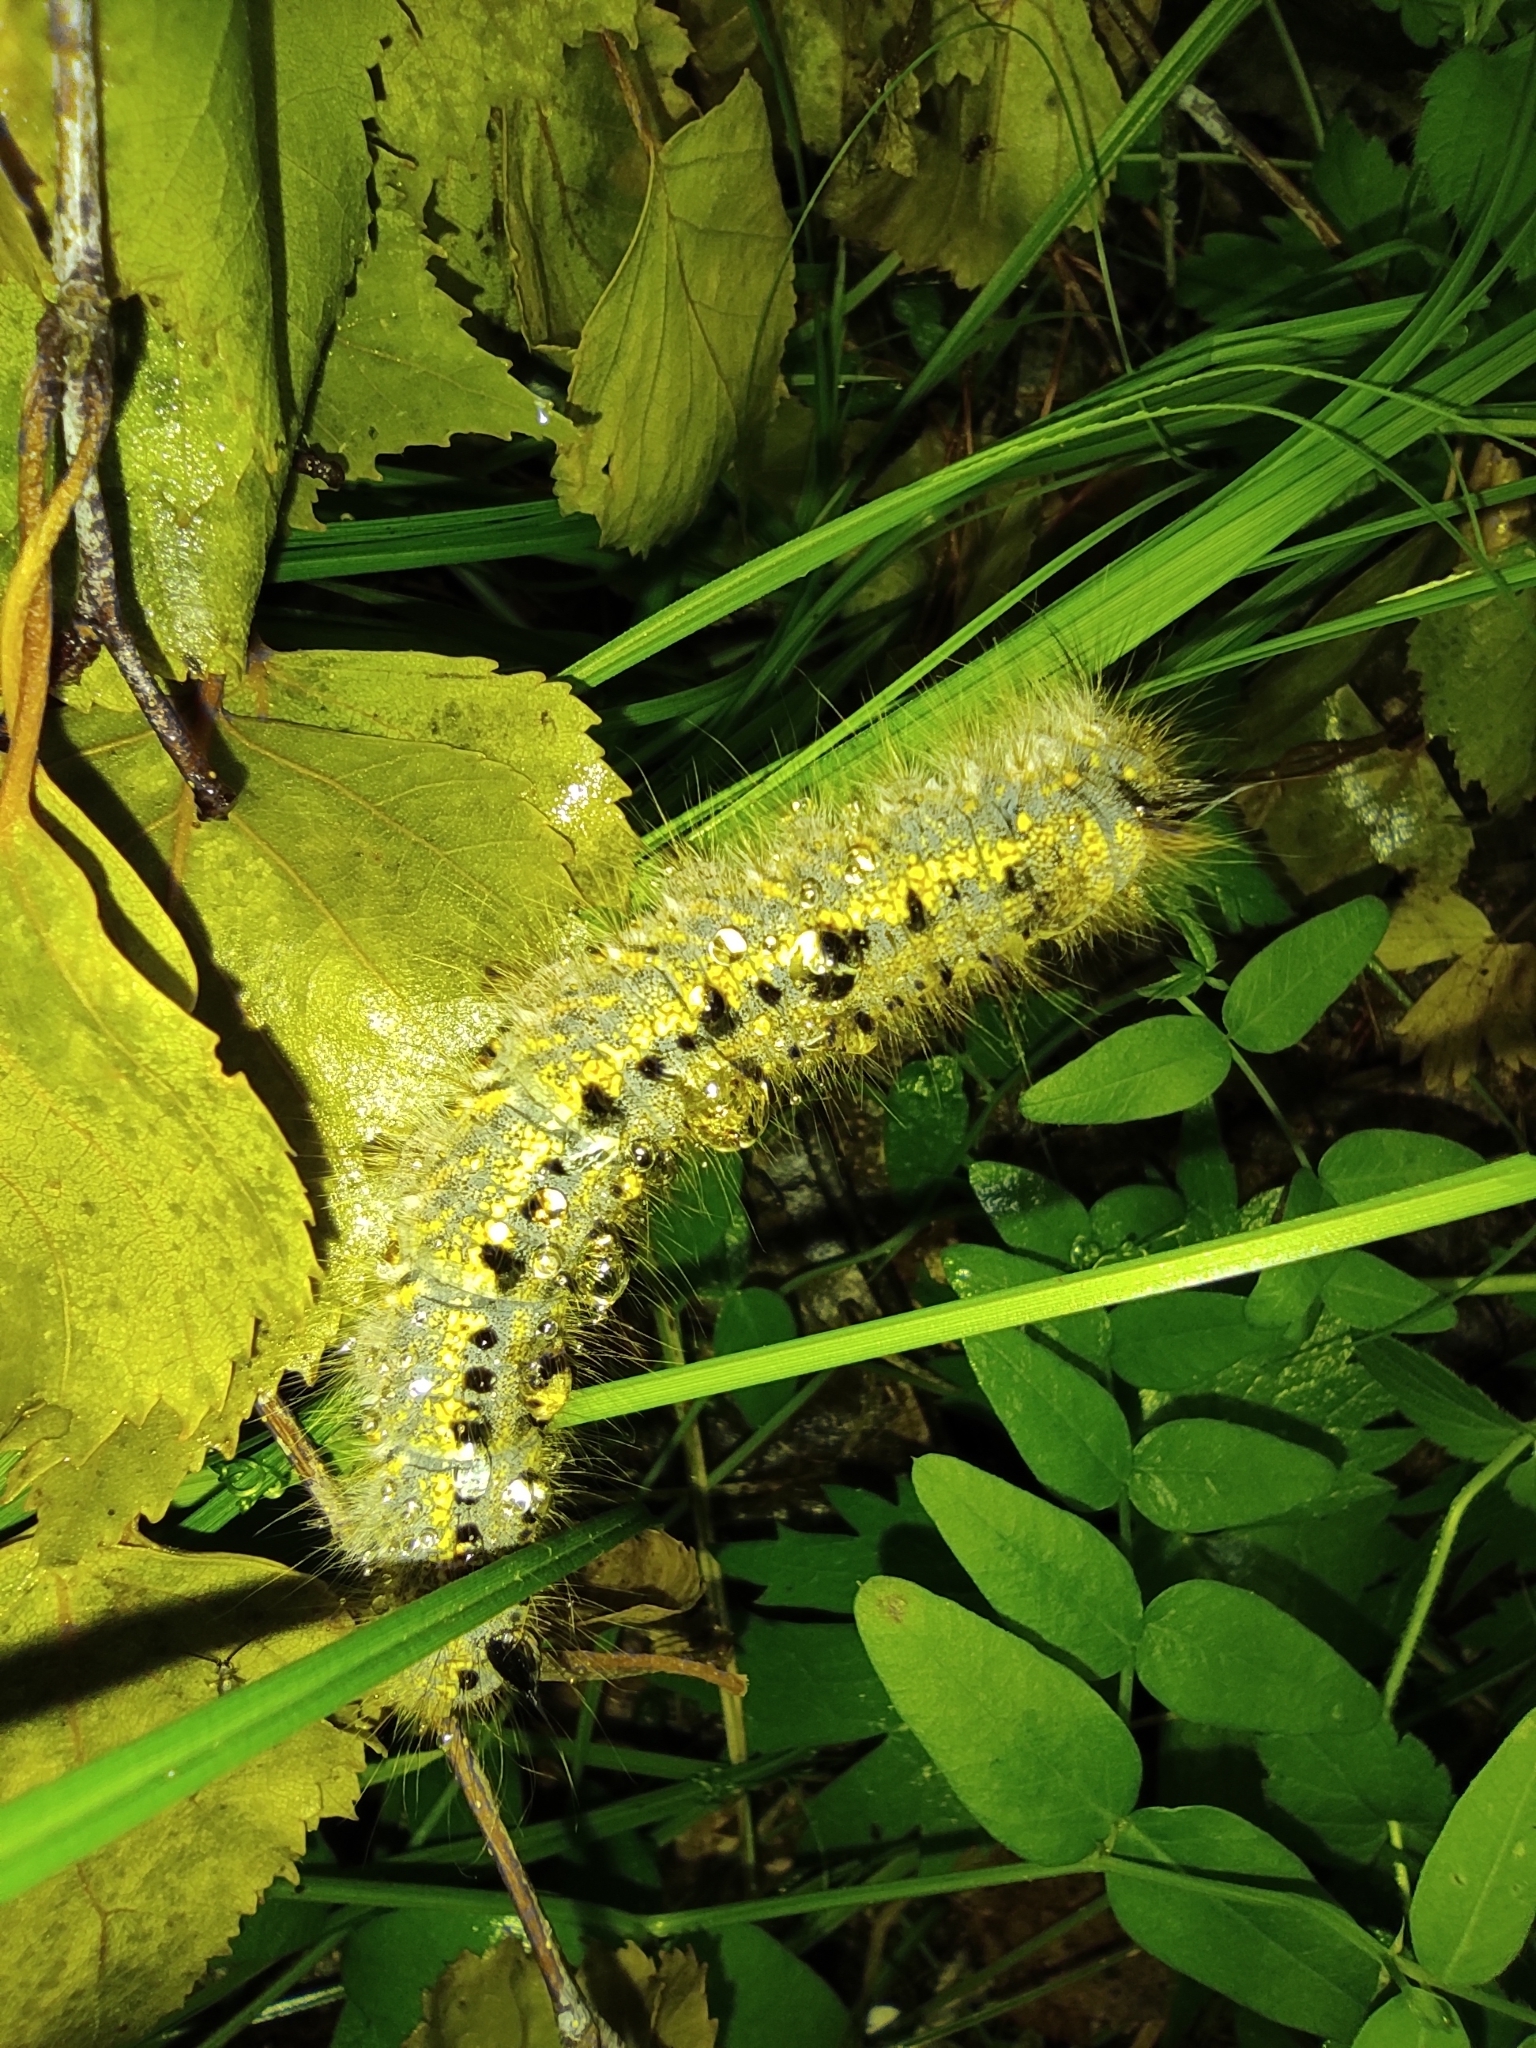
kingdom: Animalia
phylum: Arthropoda
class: Insecta
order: Lepidoptera
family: Lasiocampidae
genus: Euthrix
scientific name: Euthrix potatoria
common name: Drinker
